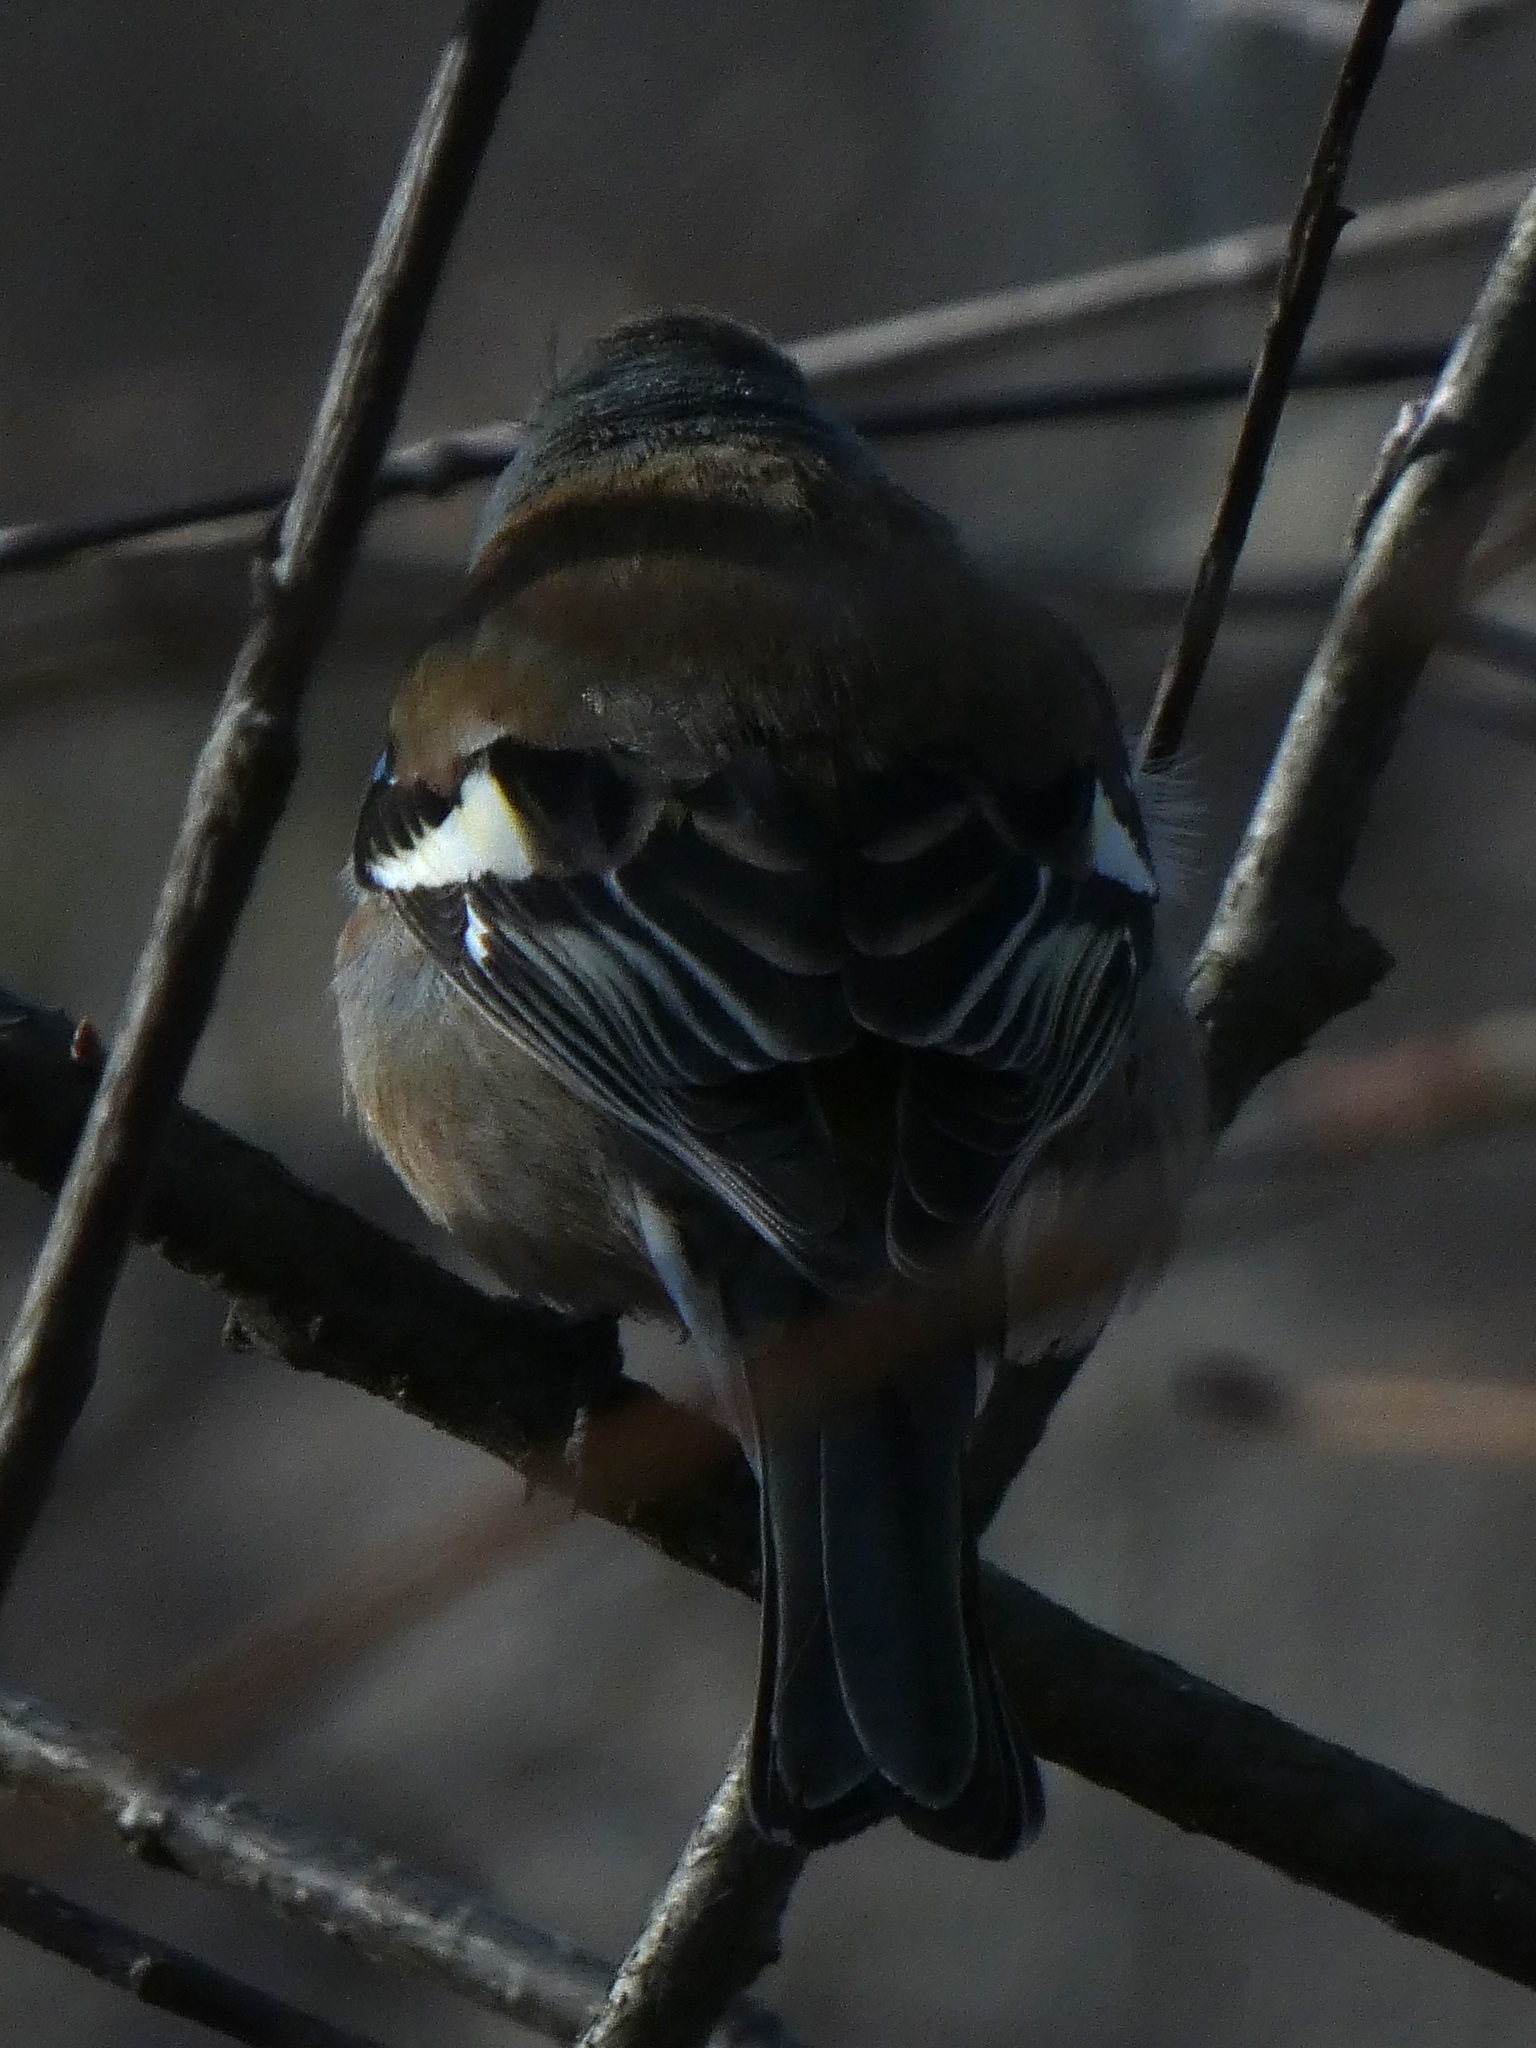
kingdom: Animalia
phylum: Chordata
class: Aves
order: Passeriformes
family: Fringillidae
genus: Fringilla
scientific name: Fringilla coelebs
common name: Common chaffinch
